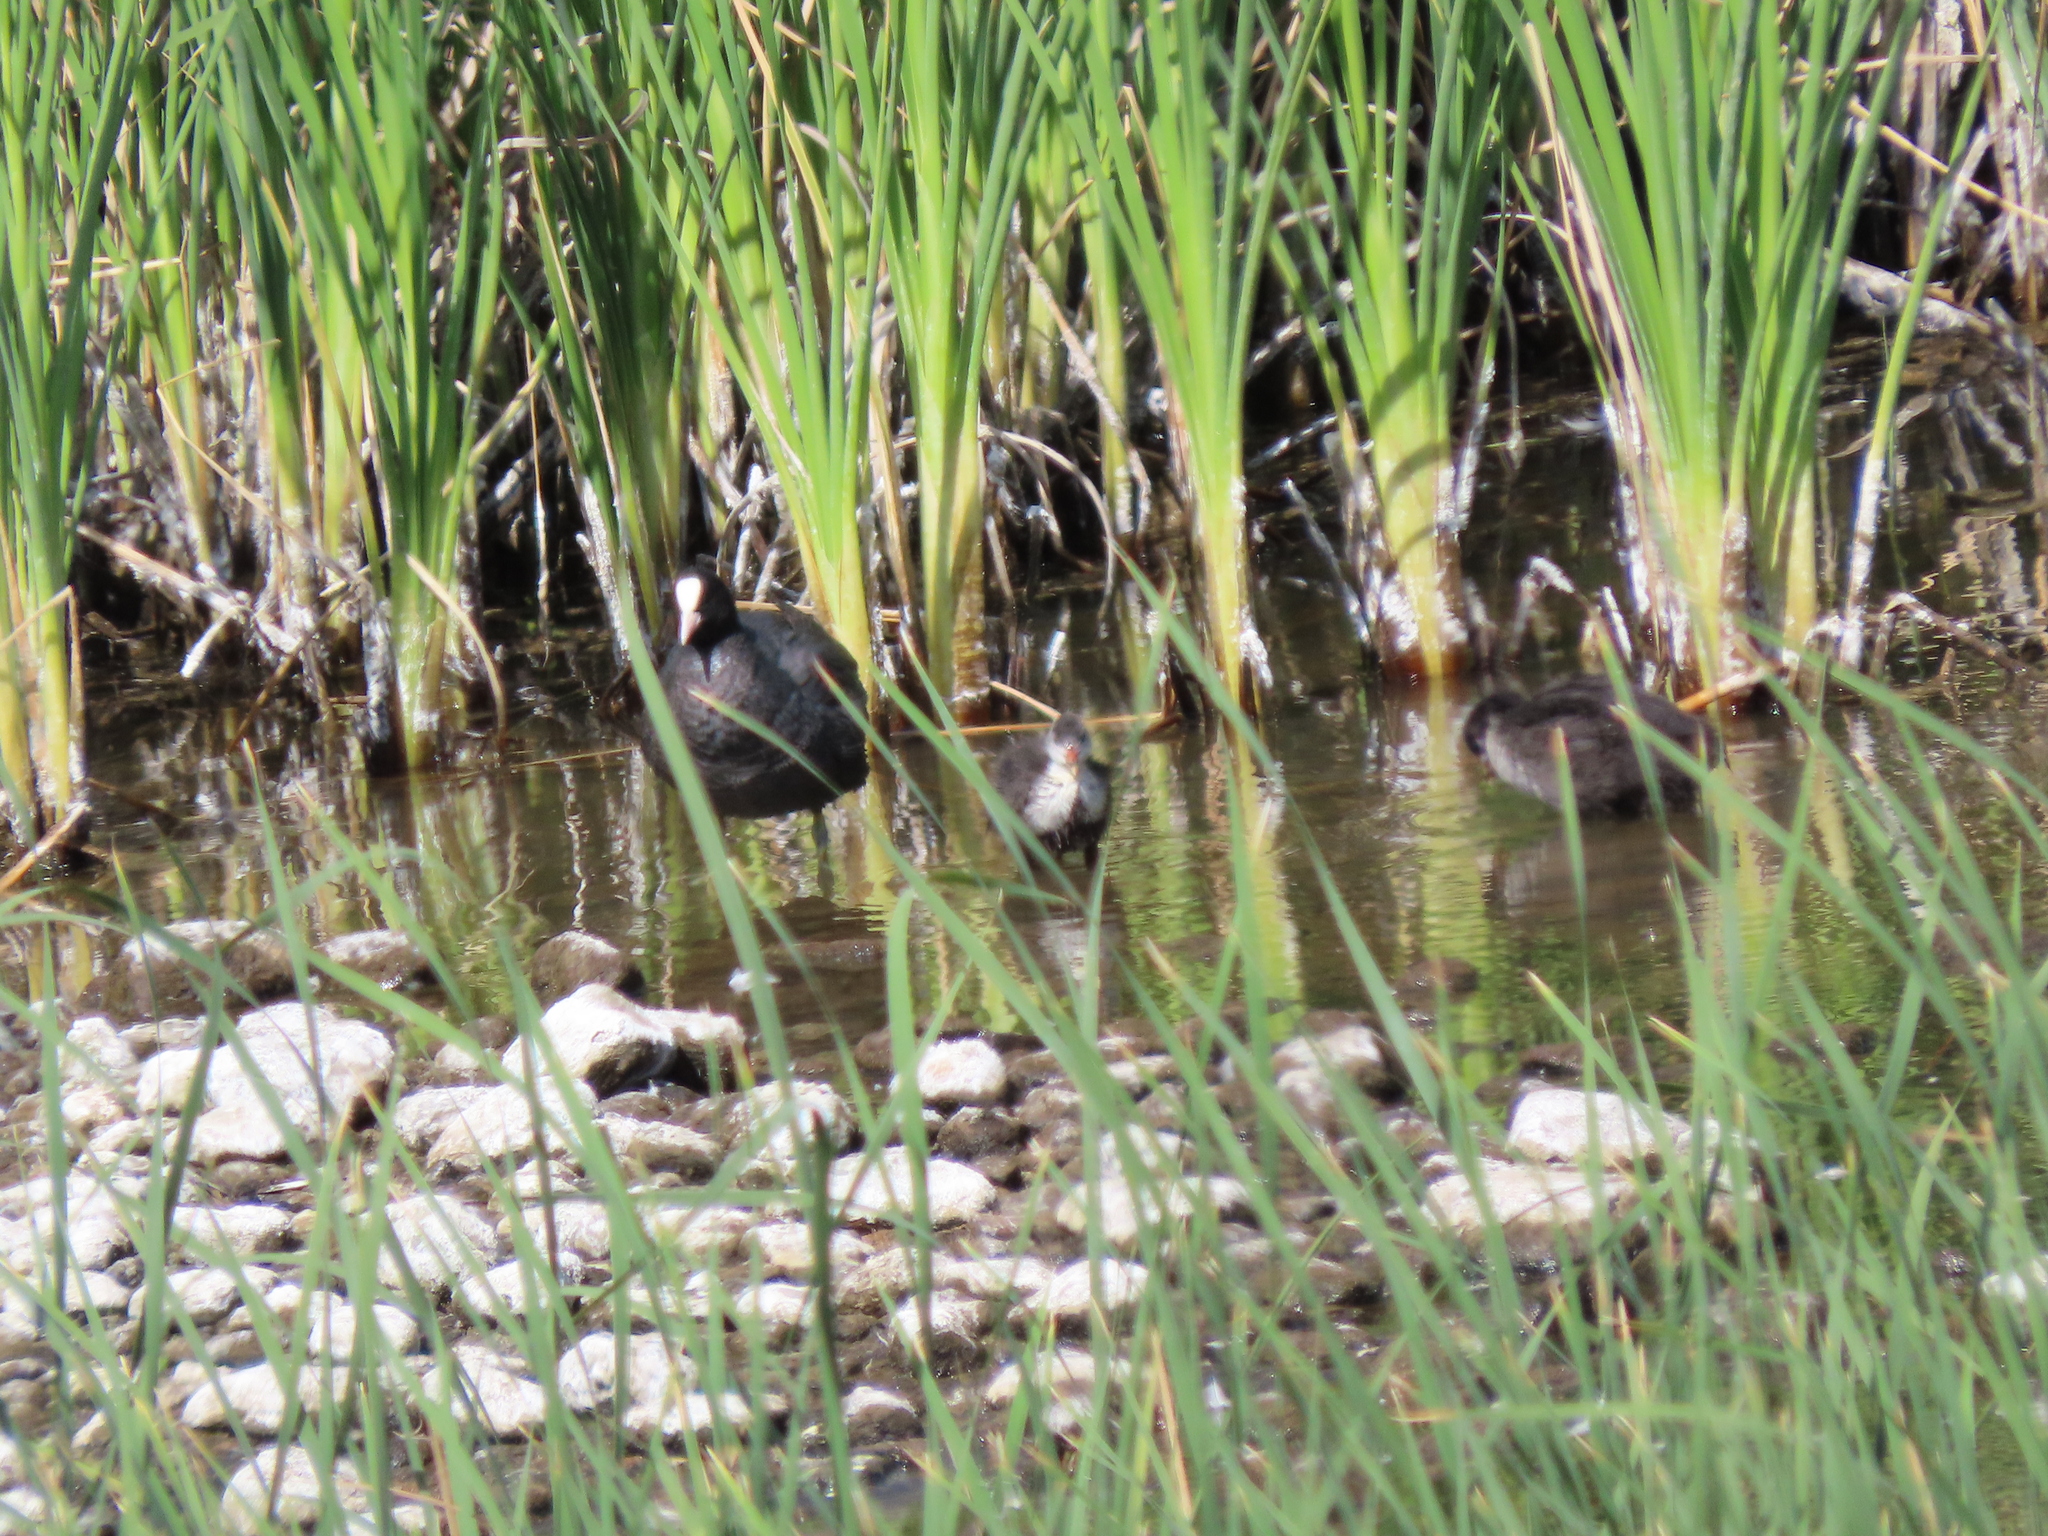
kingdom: Animalia
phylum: Chordata
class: Aves
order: Gruiformes
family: Rallidae
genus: Fulica
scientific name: Fulica atra
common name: Eurasian coot
